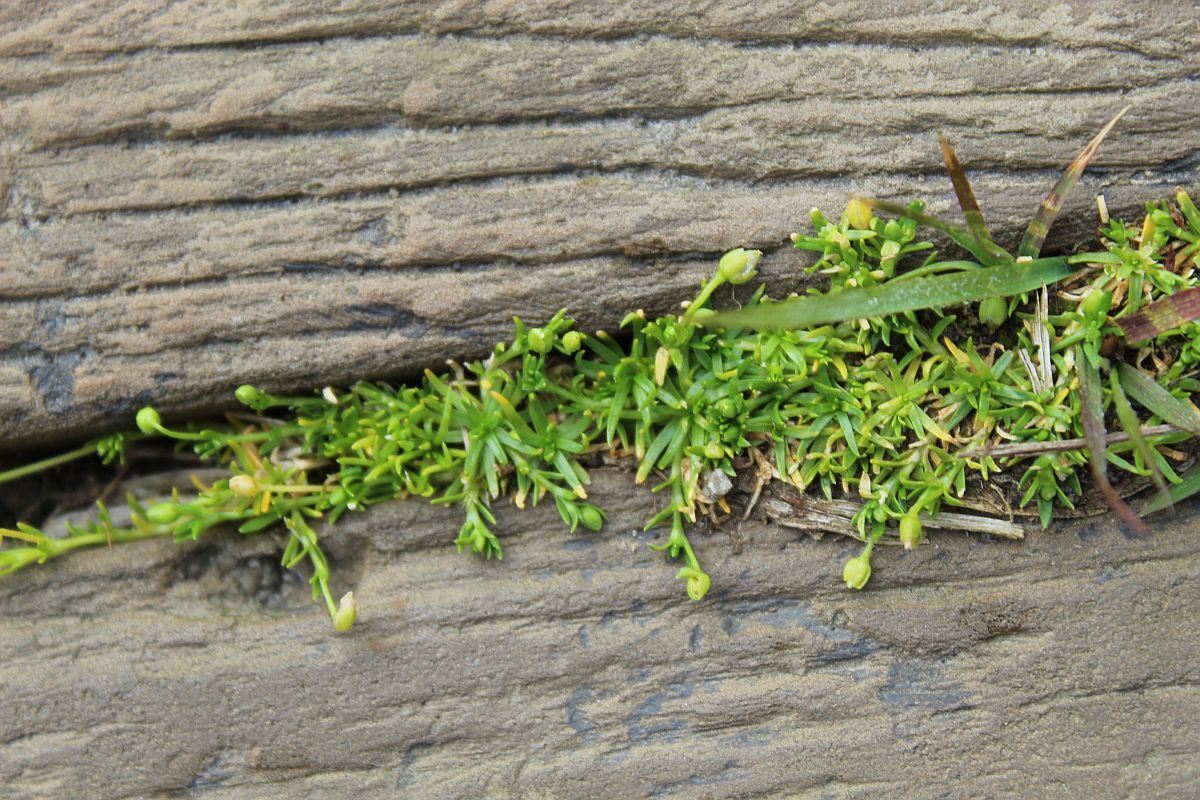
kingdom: Plantae
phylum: Tracheophyta
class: Magnoliopsida
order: Caryophyllales
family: Caryophyllaceae
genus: Sagina
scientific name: Sagina procumbens
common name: Procumbent pearlwort
